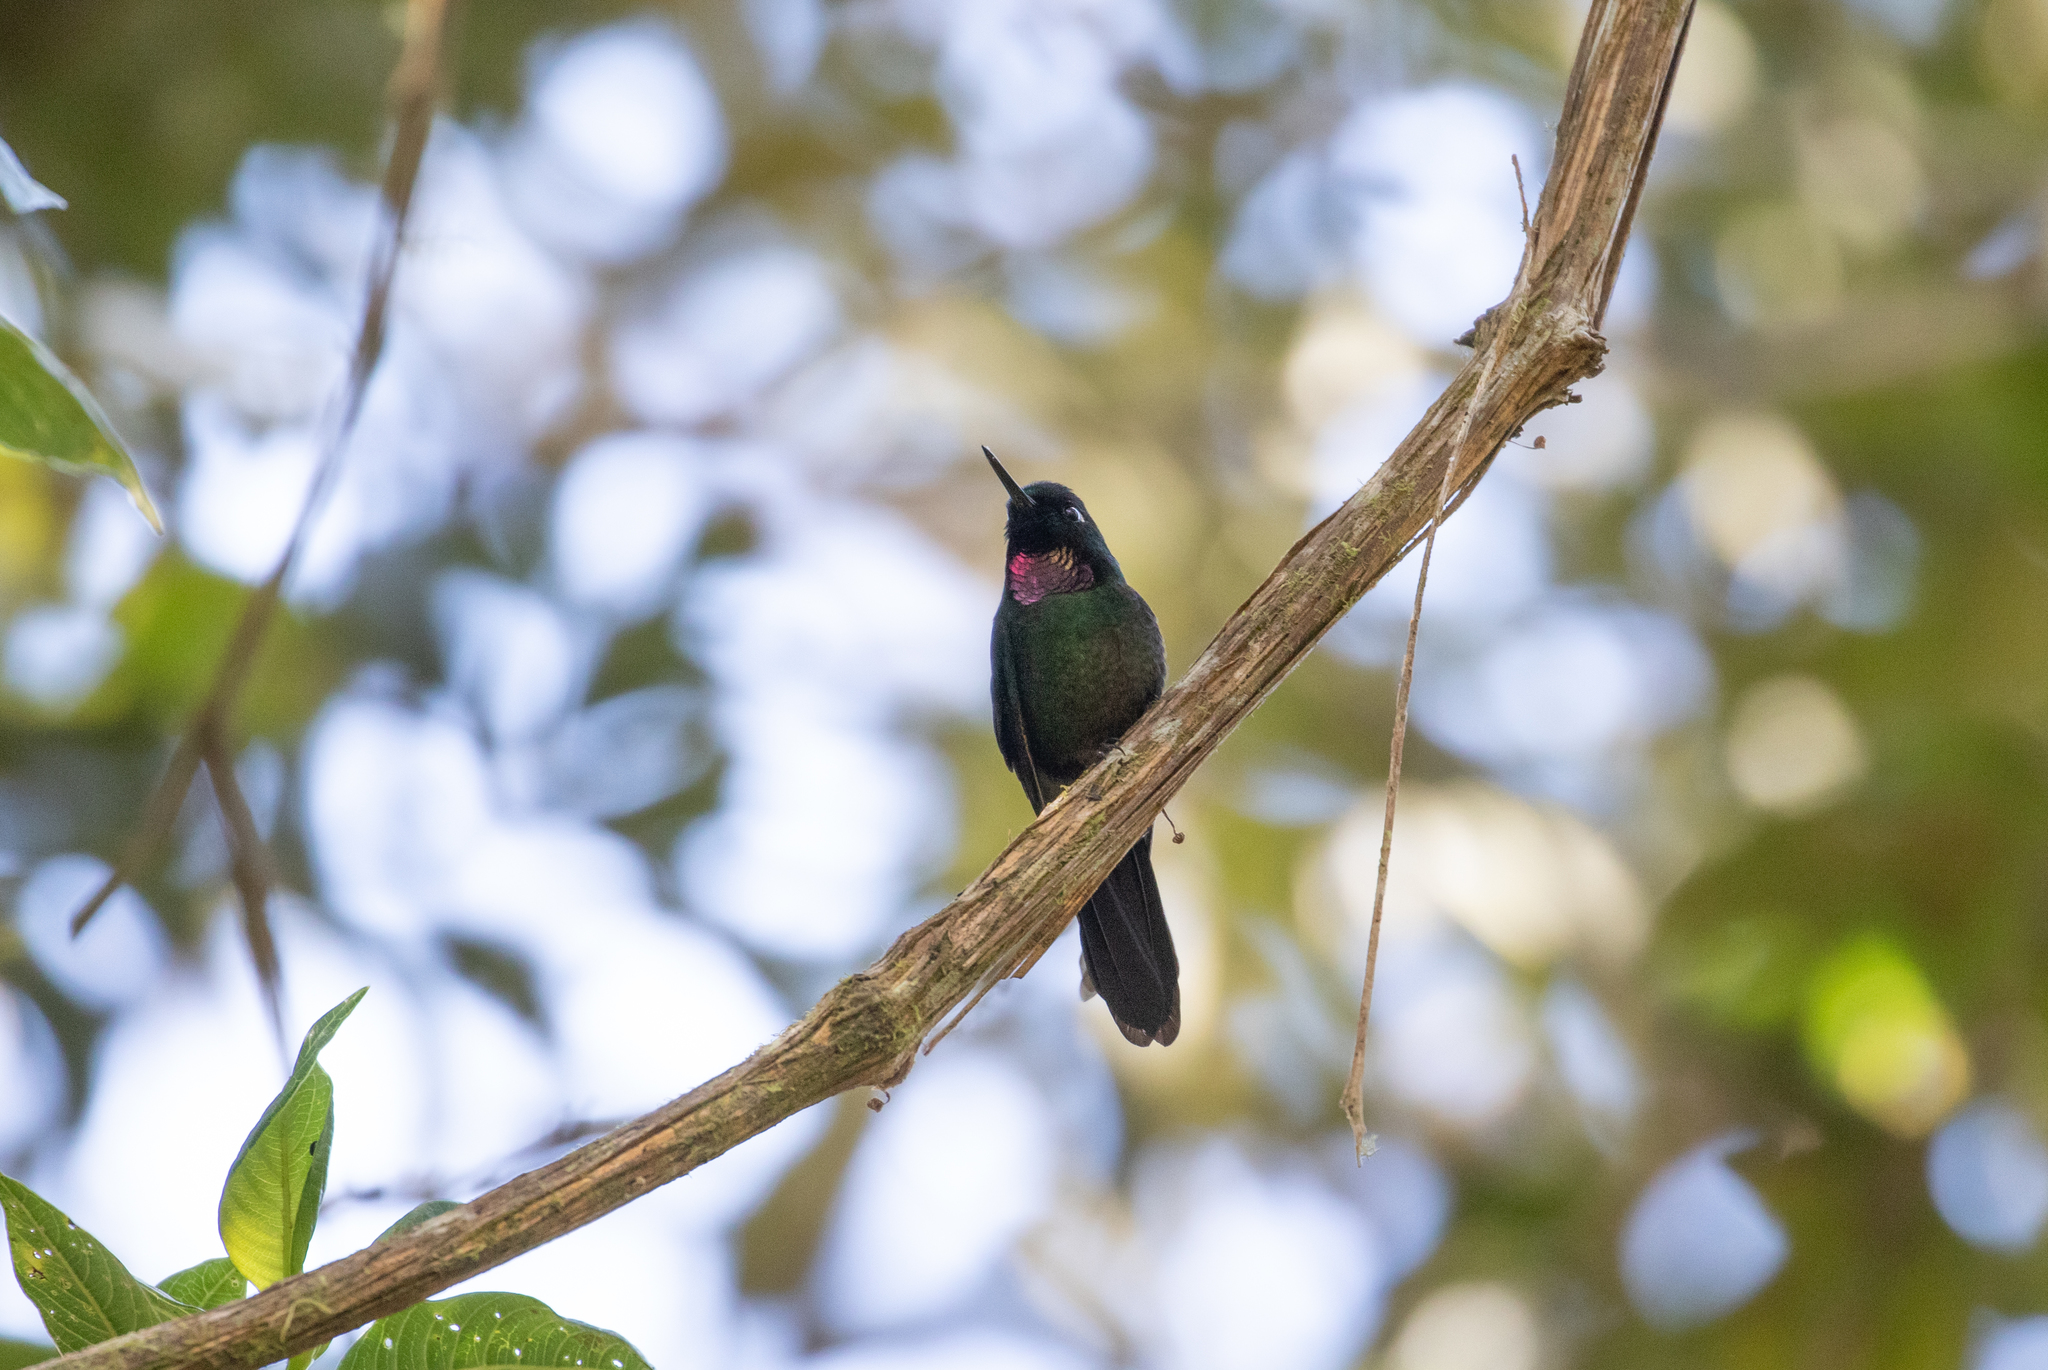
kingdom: Animalia
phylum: Chordata
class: Aves
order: Apodiformes
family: Trochilidae
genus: Heliangelus
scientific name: Heliangelus exortis
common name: Tourmaline sunangel
